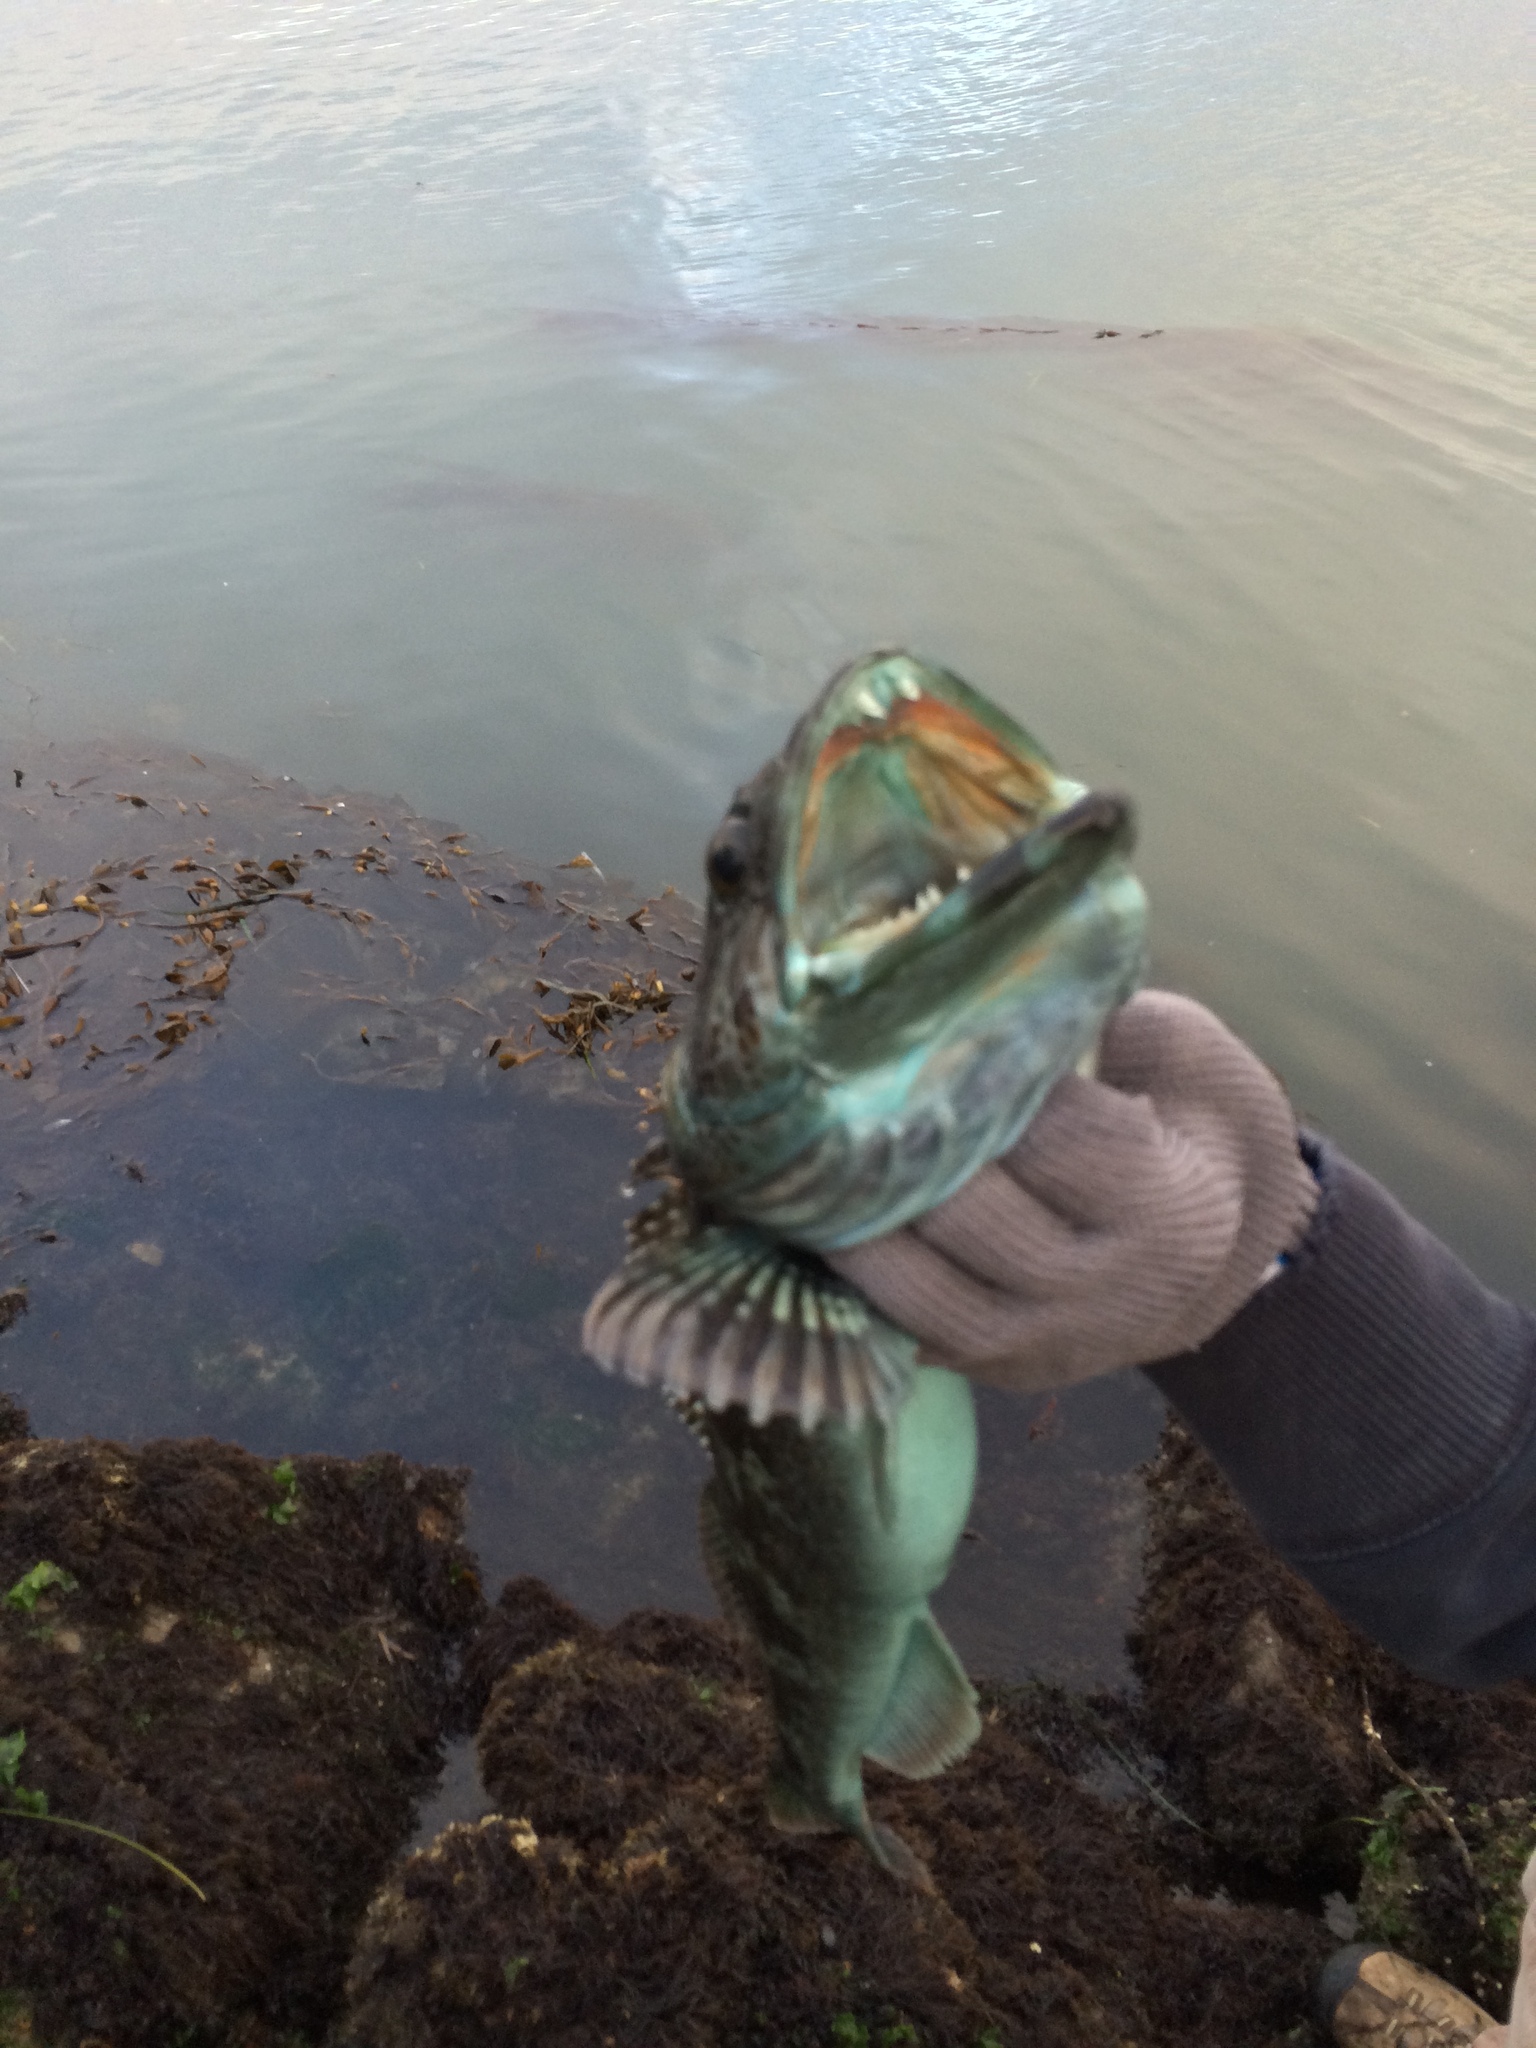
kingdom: Animalia
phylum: Chordata
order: Scorpaeniformes
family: Hexagrammidae
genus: Ophiodon
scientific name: Ophiodon elongatus
